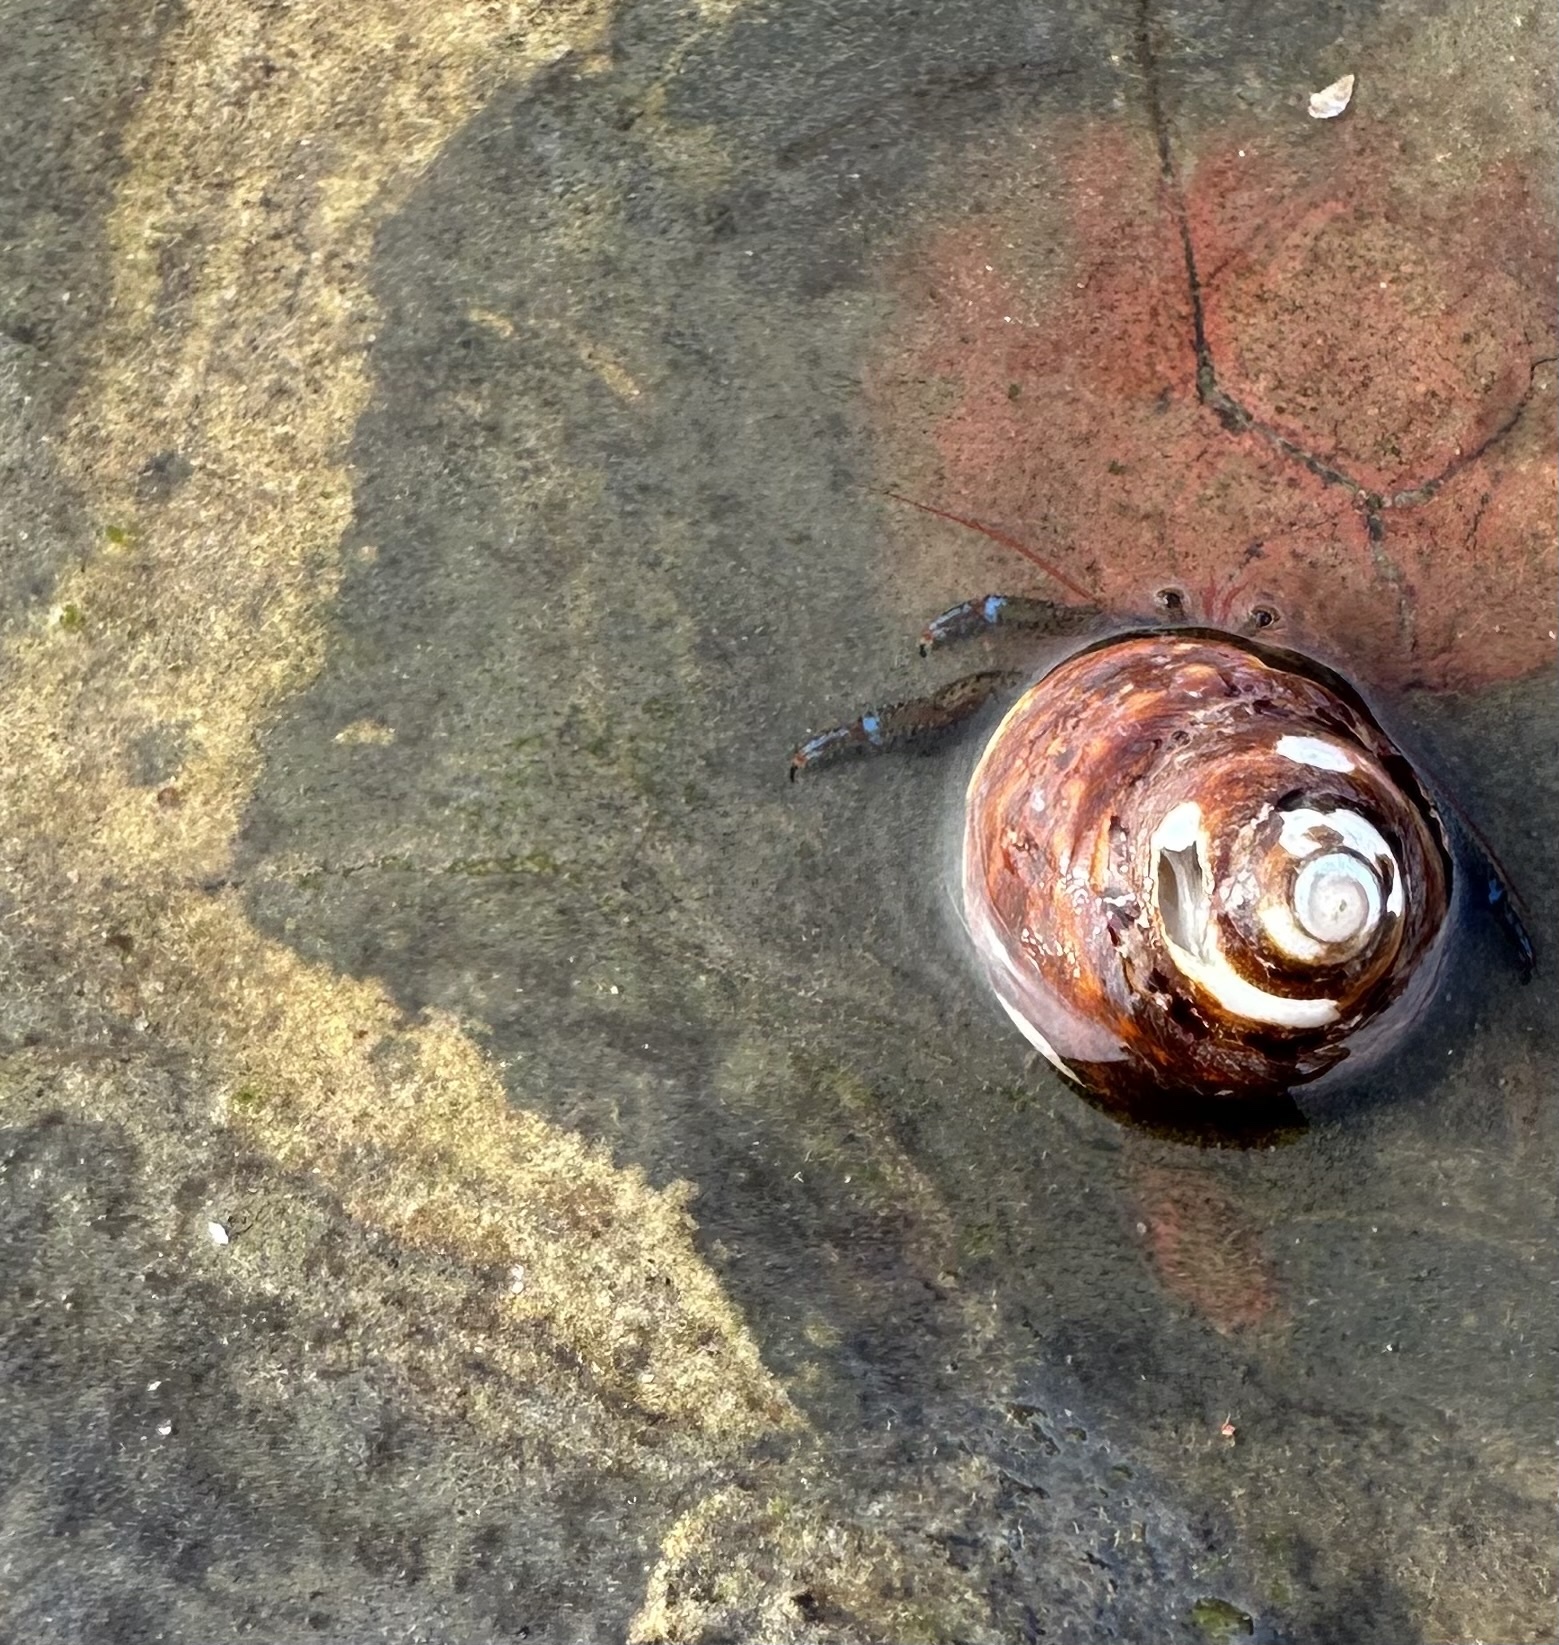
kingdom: Animalia
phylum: Arthropoda
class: Malacostraca
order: Decapoda
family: Paguridae
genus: Pagurus
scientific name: Pagurus samuelis
